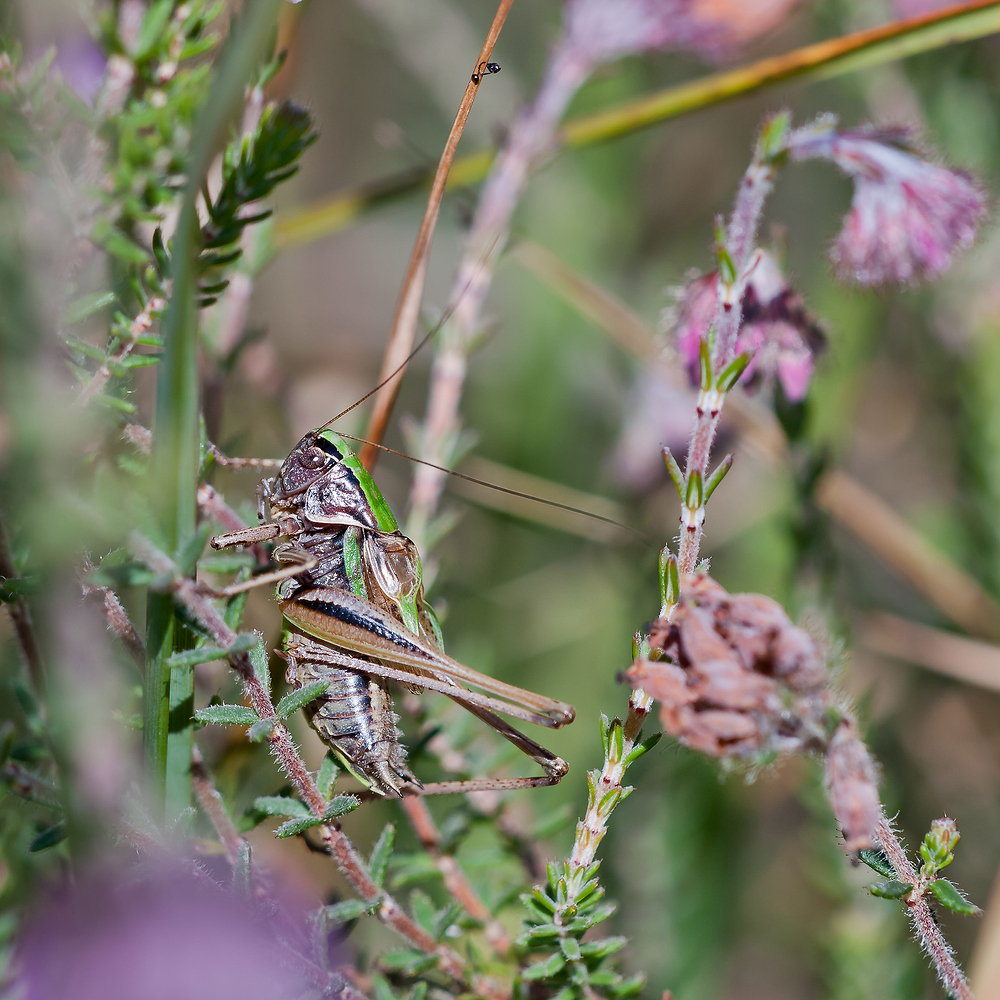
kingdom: Animalia
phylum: Arthropoda
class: Insecta
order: Orthoptera
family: Tettigoniidae
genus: Metrioptera
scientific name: Metrioptera brachyptera
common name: Bog bush-cricket
